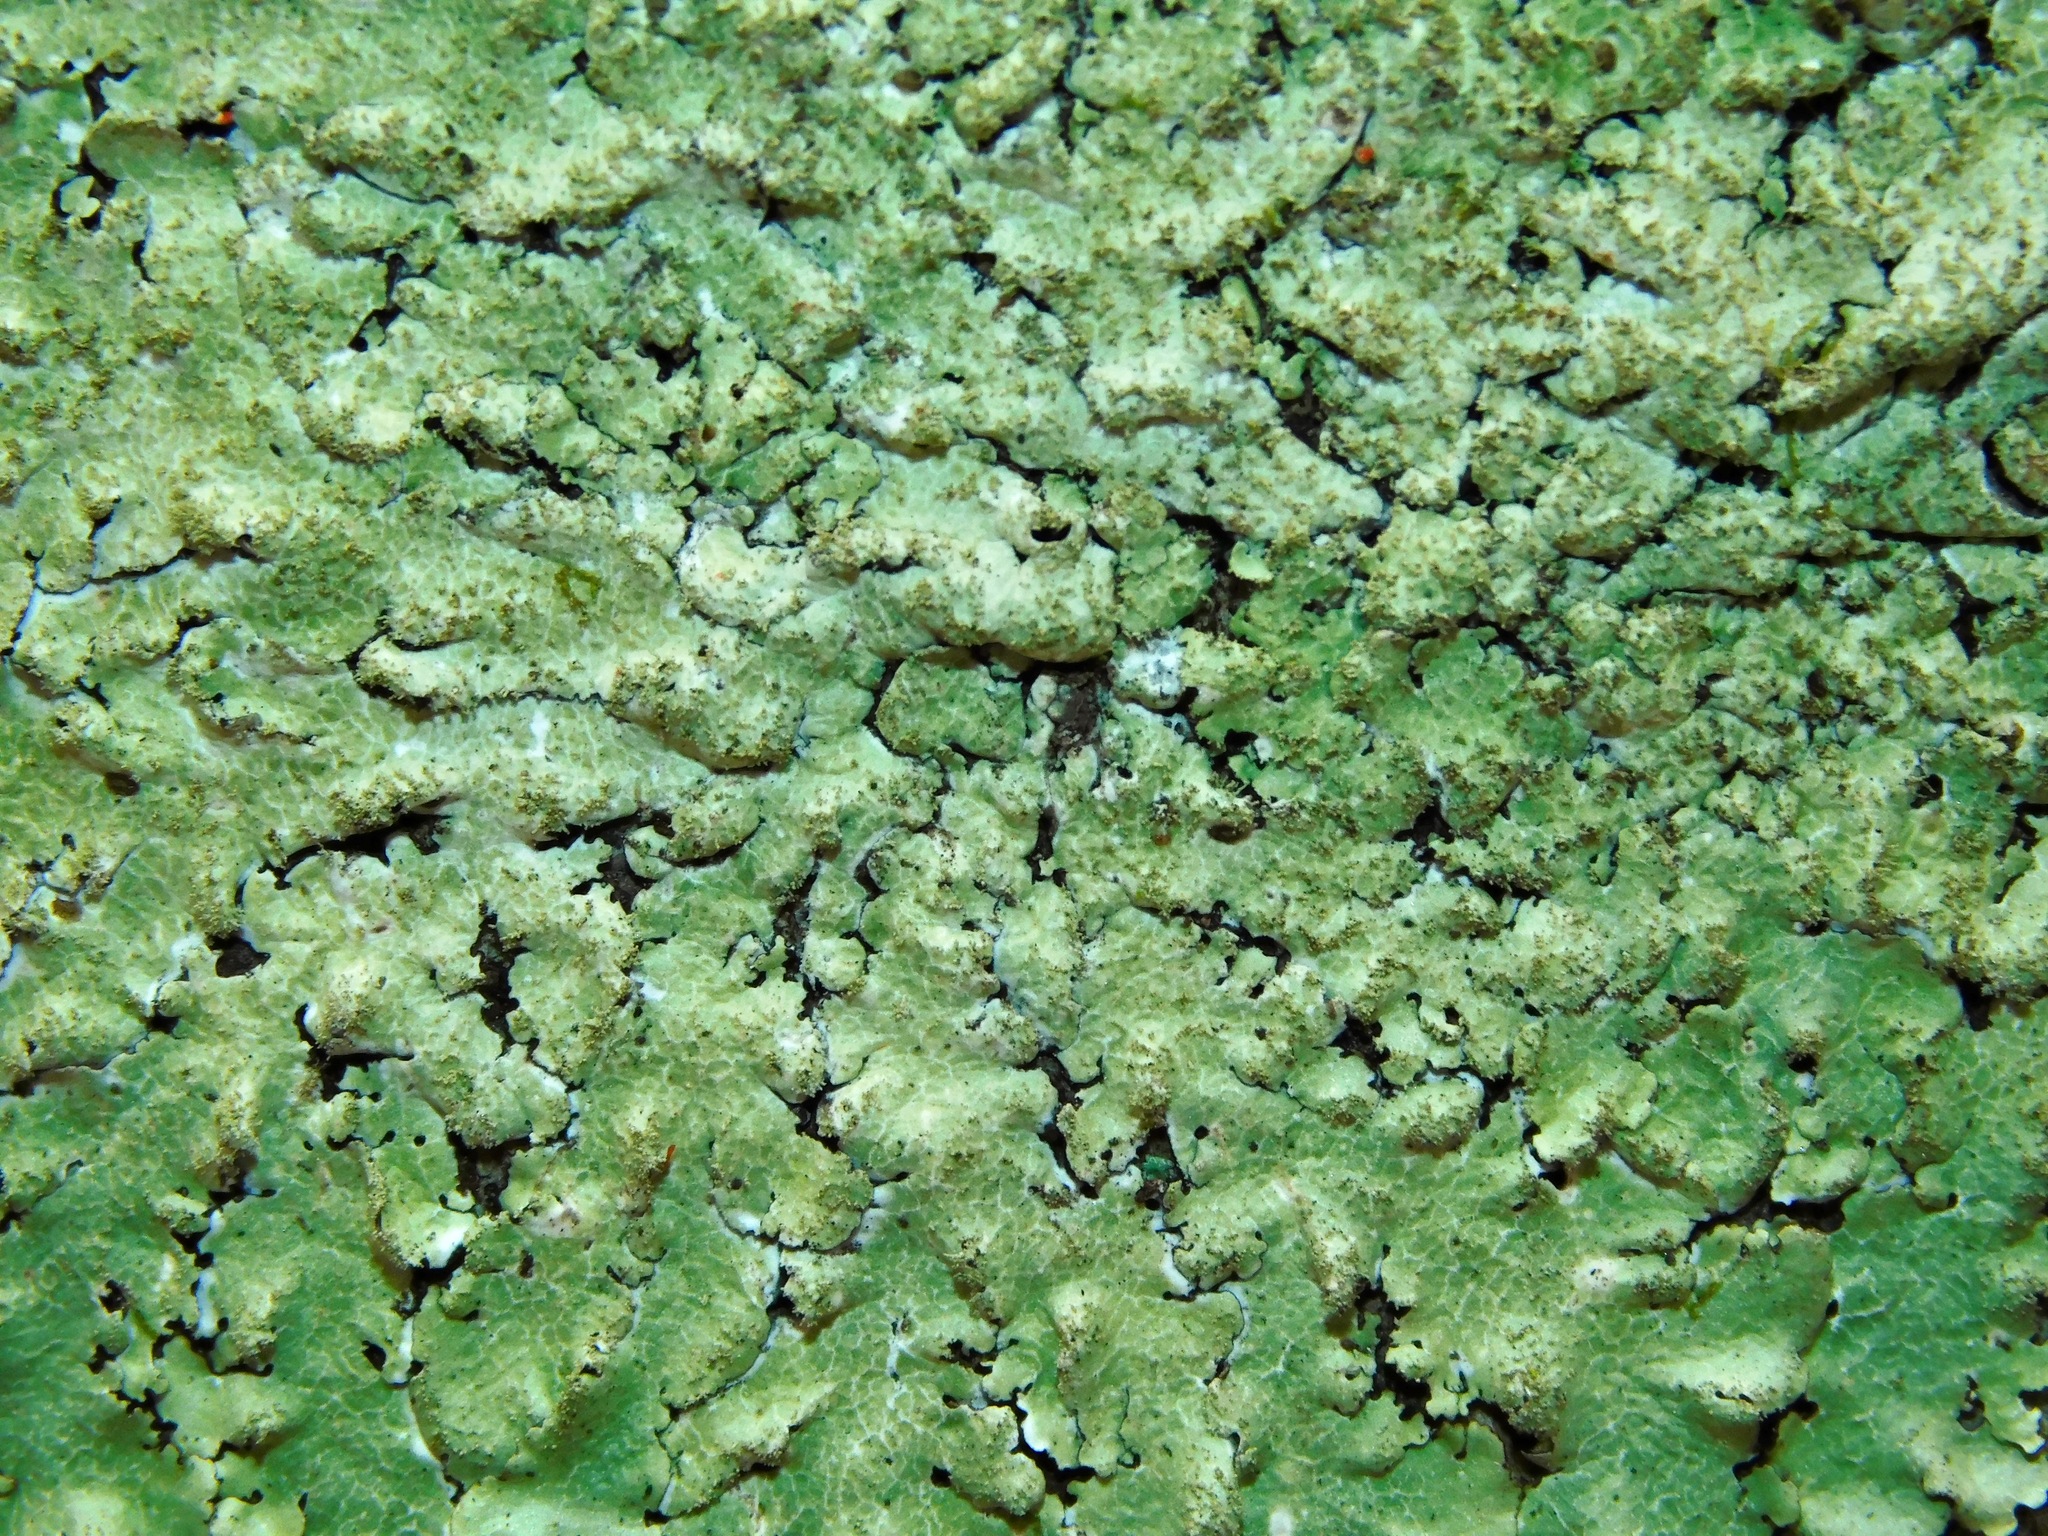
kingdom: Fungi
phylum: Ascomycota
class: Lecanoromycetes
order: Lecanorales
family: Parmeliaceae
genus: Canoparmelia
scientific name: Canoparmelia caroliniana
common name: Carolina shield lichen
